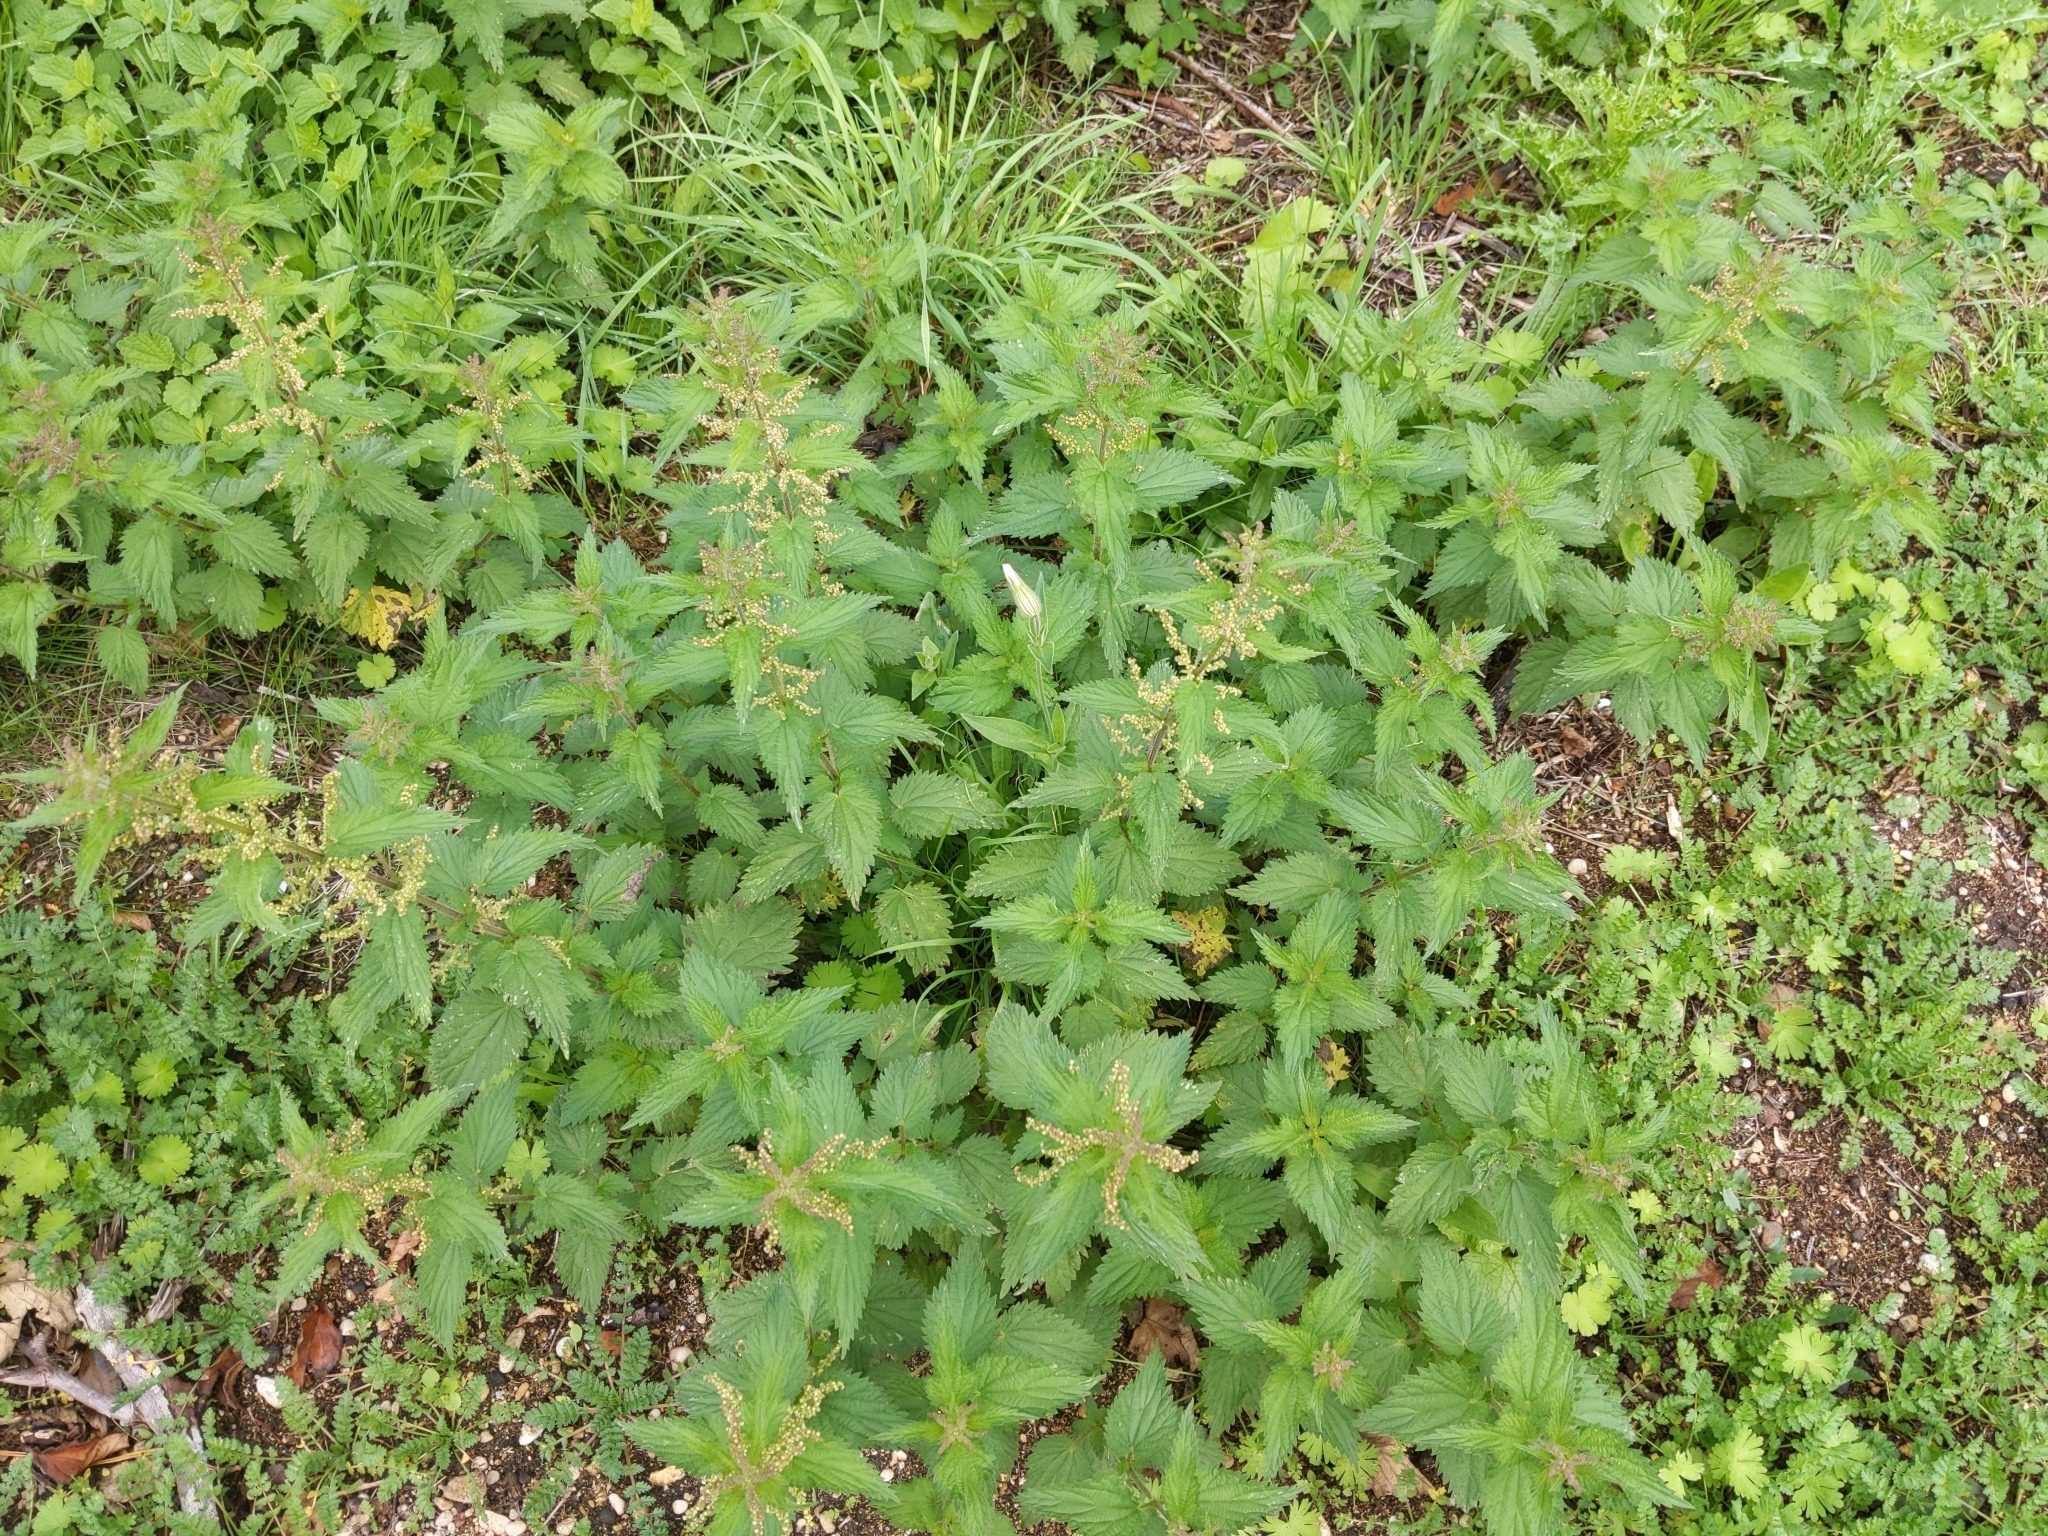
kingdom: Plantae
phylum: Tracheophyta
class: Magnoliopsida
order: Rosales
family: Urticaceae
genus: Urtica
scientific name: Urtica dioica
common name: Common nettle
